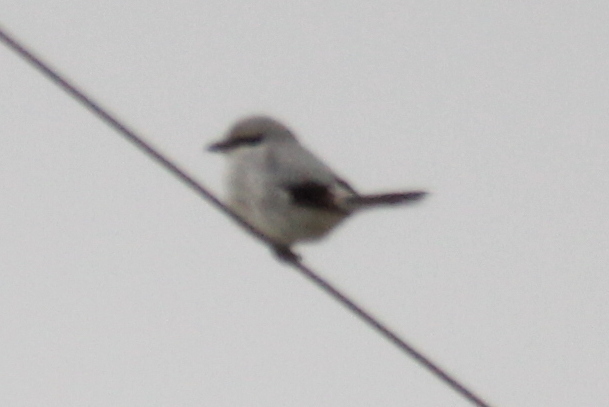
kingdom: Animalia
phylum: Chordata
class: Aves
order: Passeriformes
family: Laniidae
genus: Lanius
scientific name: Lanius excubitor
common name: Great grey shrike
